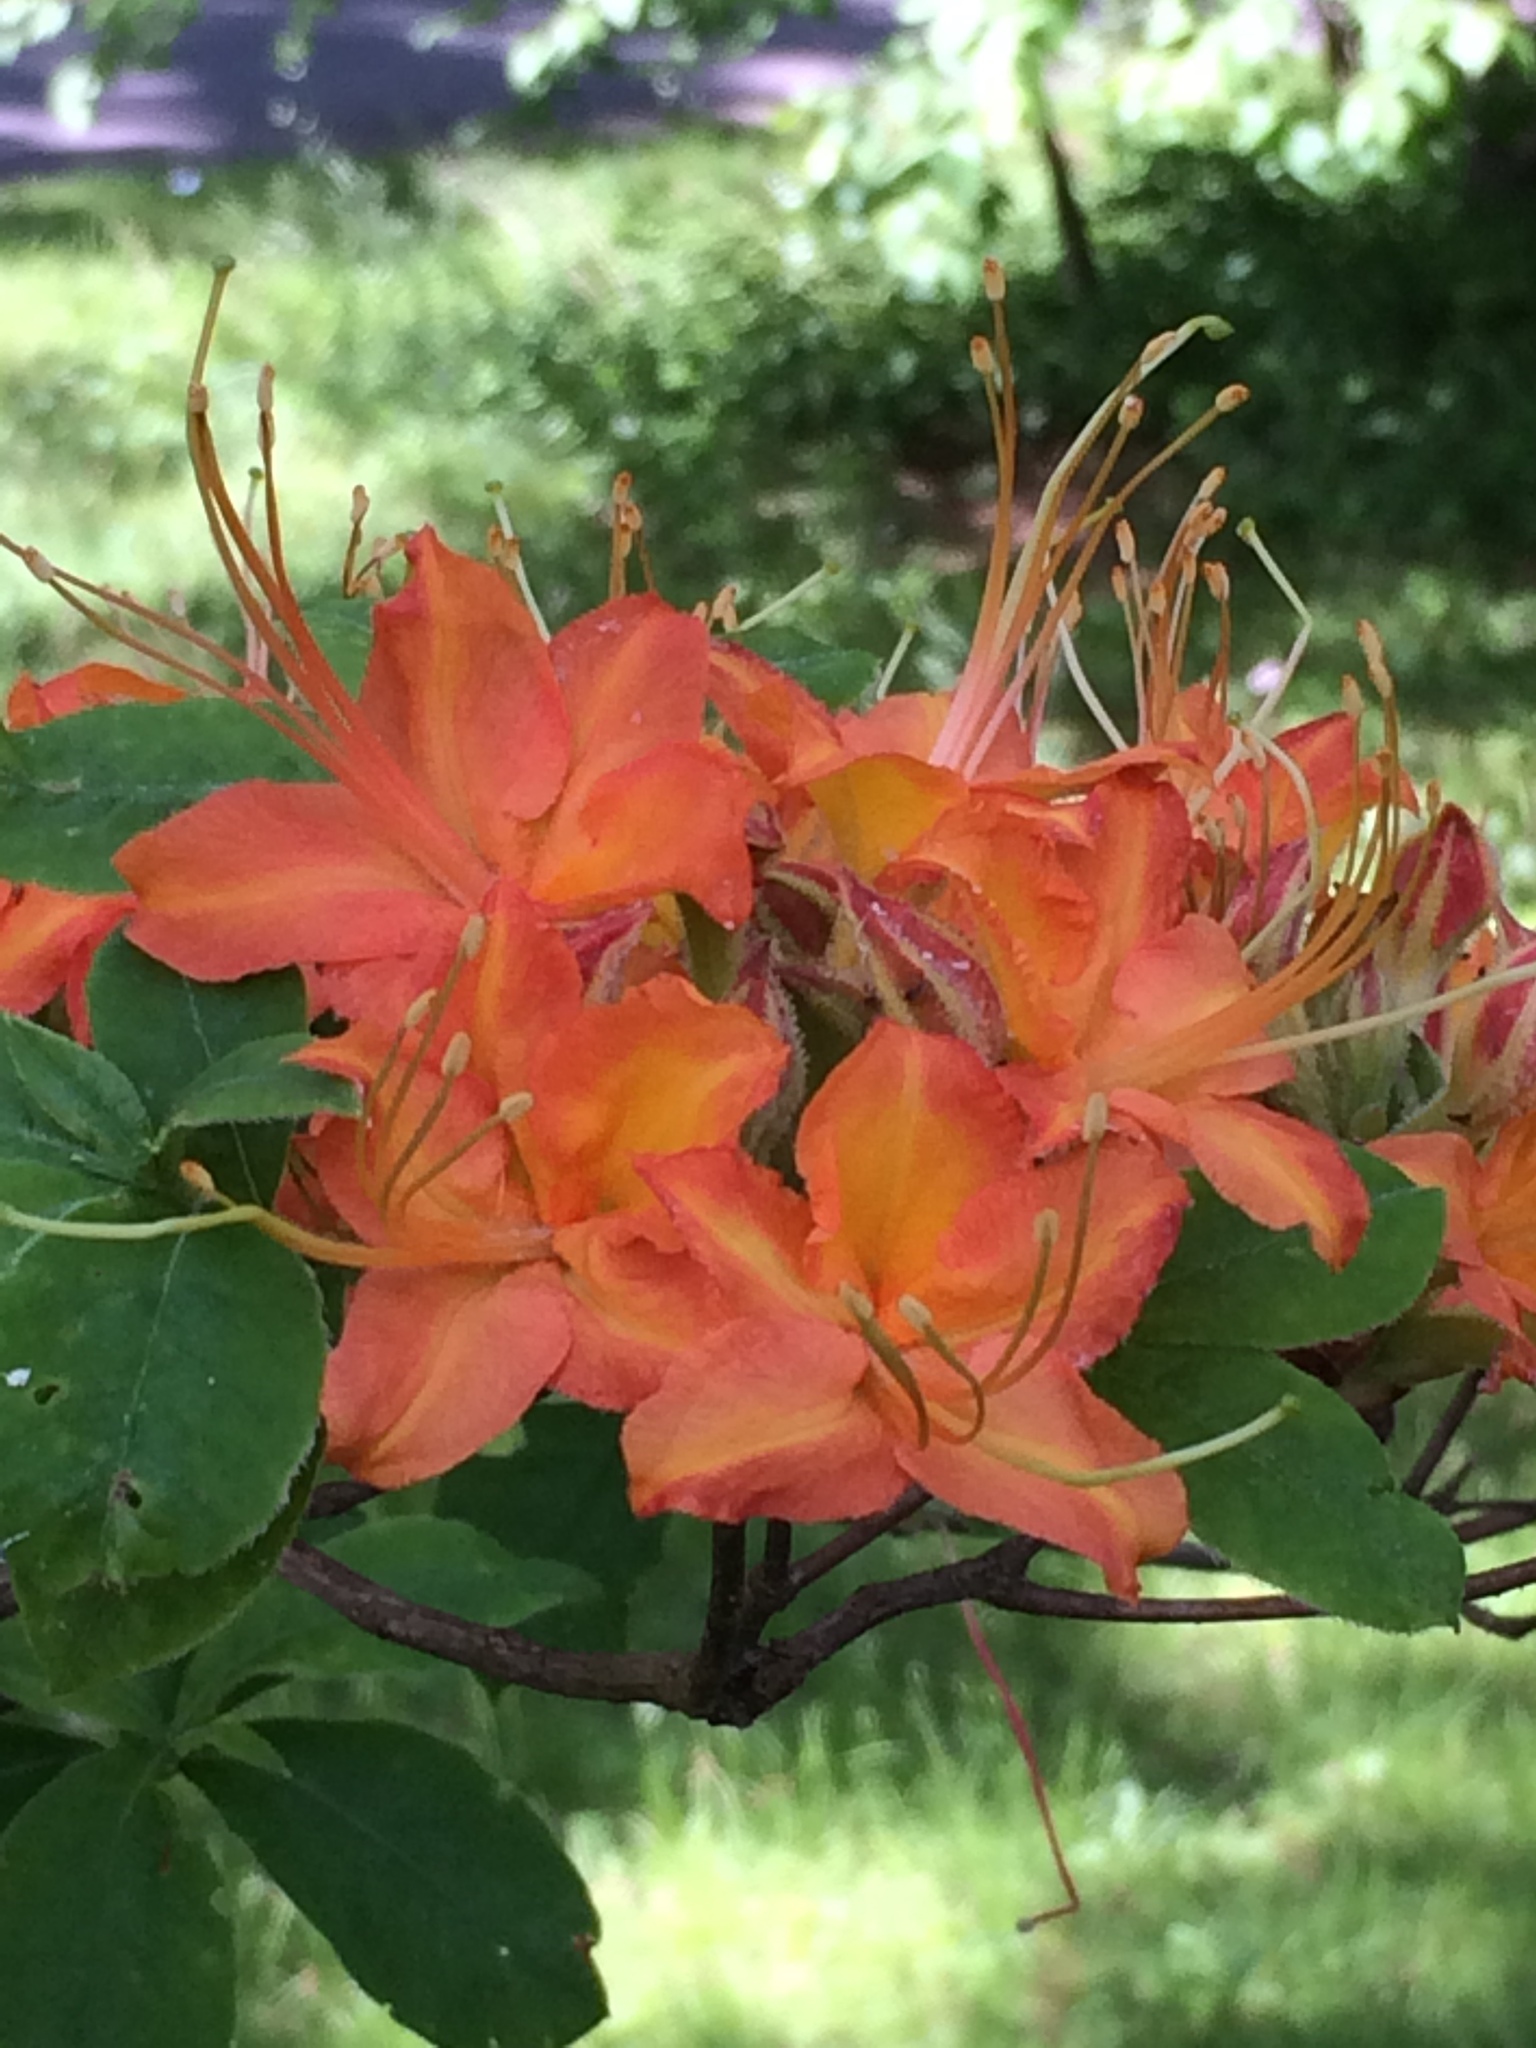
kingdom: Plantae
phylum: Tracheophyta
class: Magnoliopsida
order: Ericales
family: Ericaceae
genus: Rhododendron
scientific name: Rhododendron calendulaceum
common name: Flame azalea
